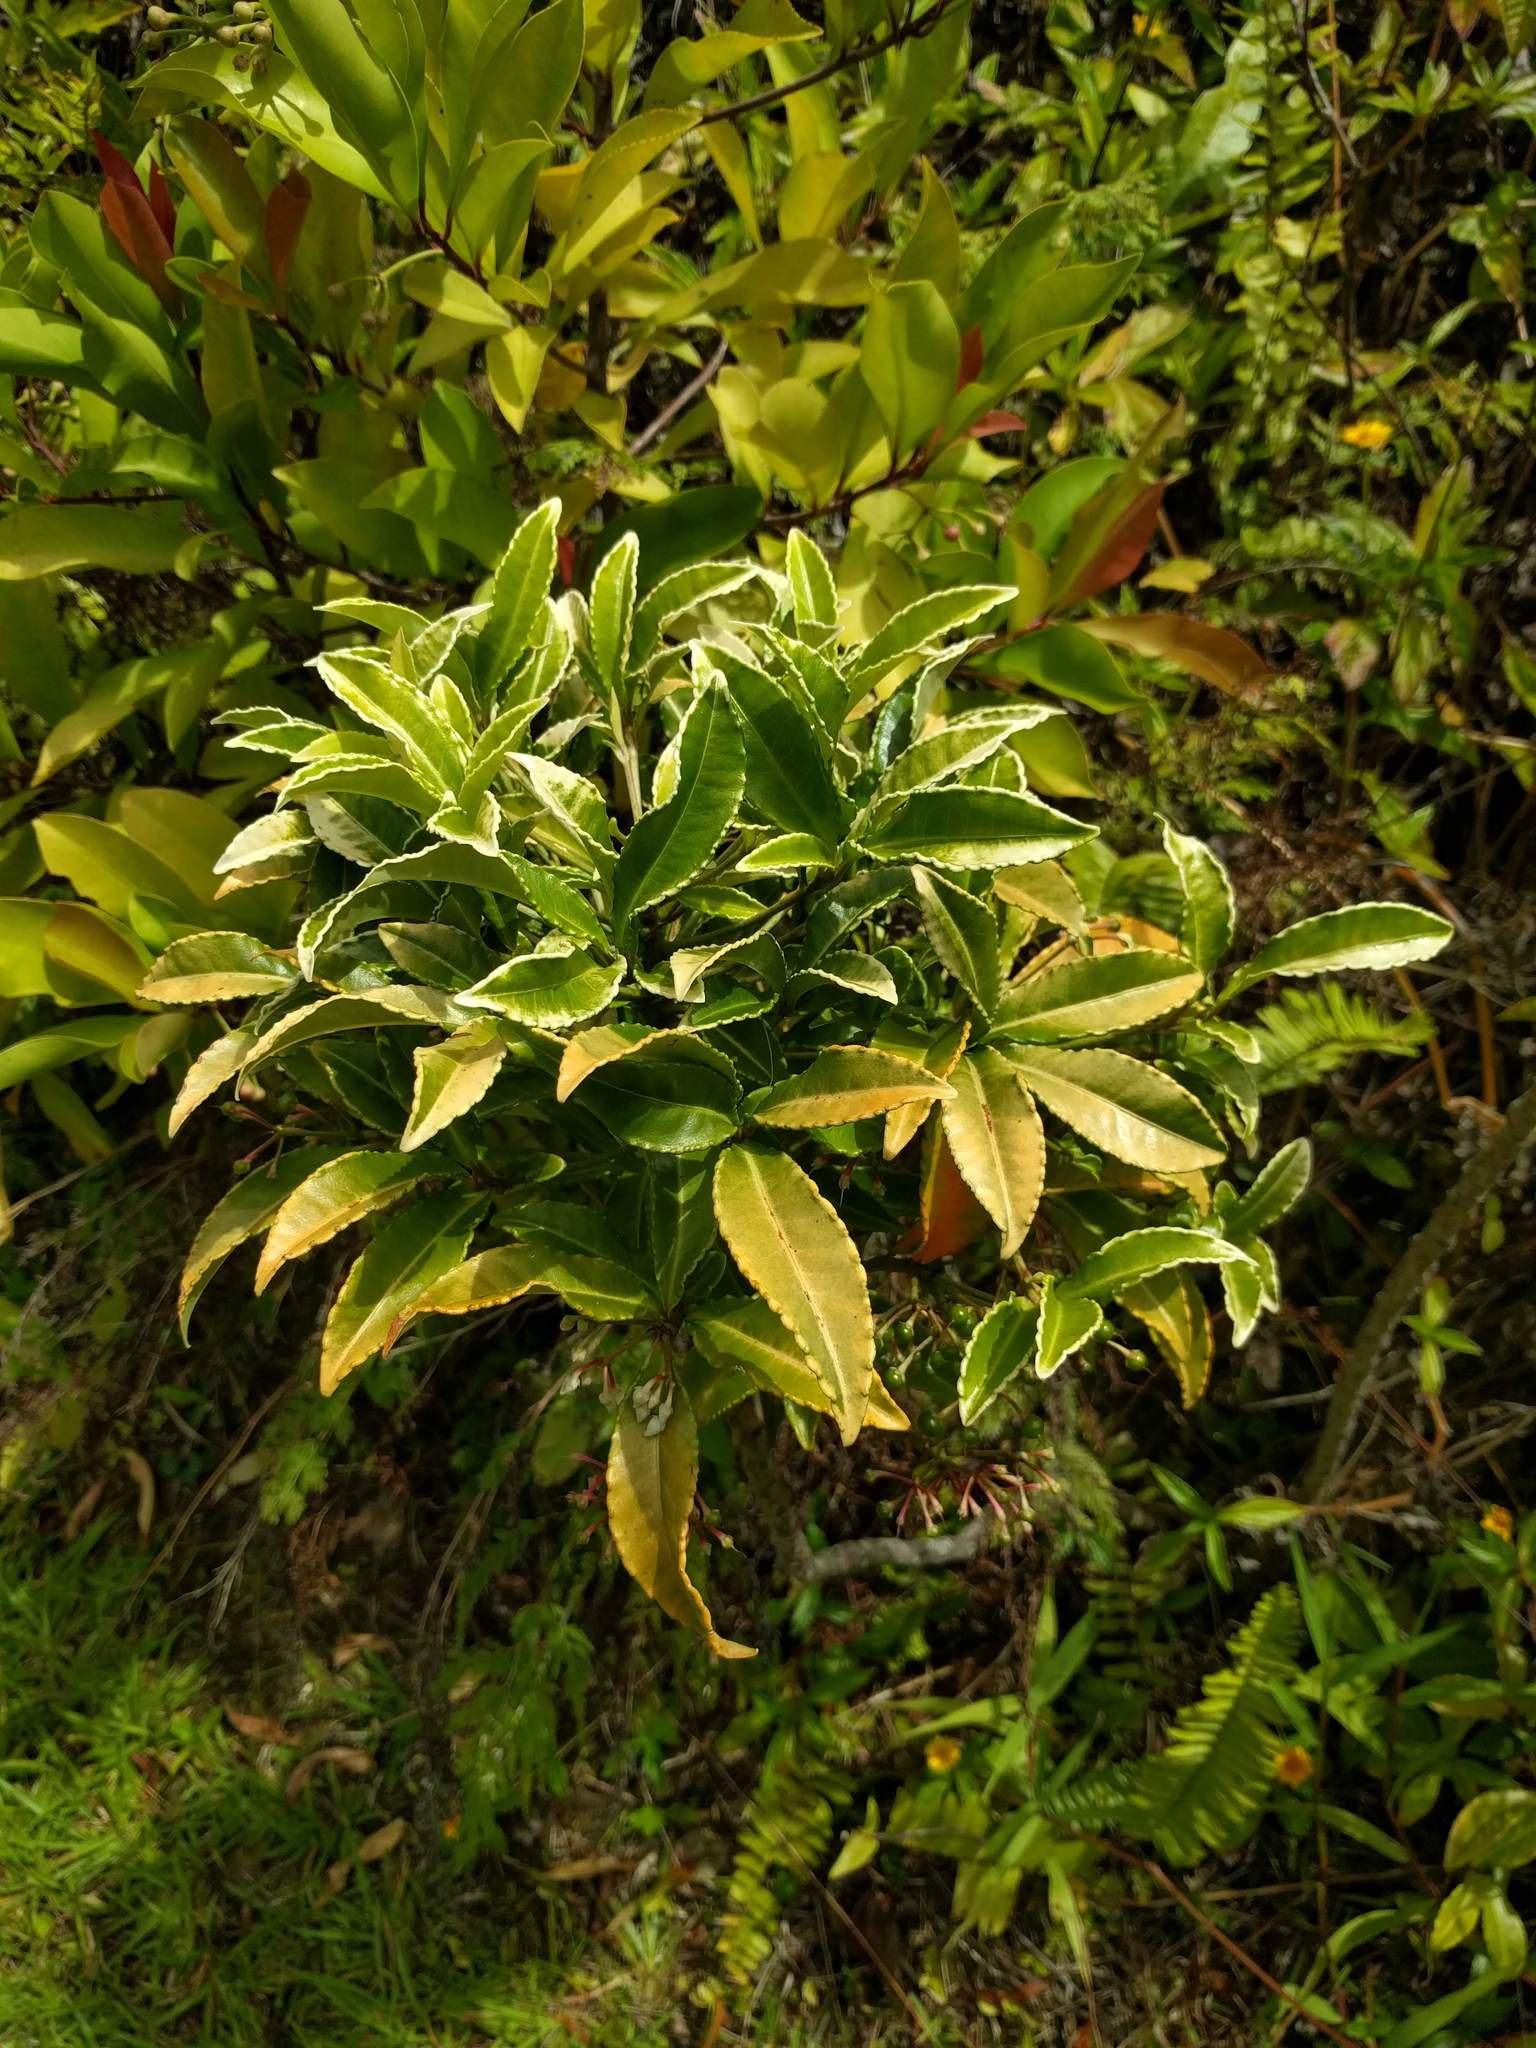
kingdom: Plantae
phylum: Tracheophyta
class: Magnoliopsida
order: Ericales
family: Primulaceae
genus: Ardisia
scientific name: Ardisia crenata
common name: Hen's eyes
